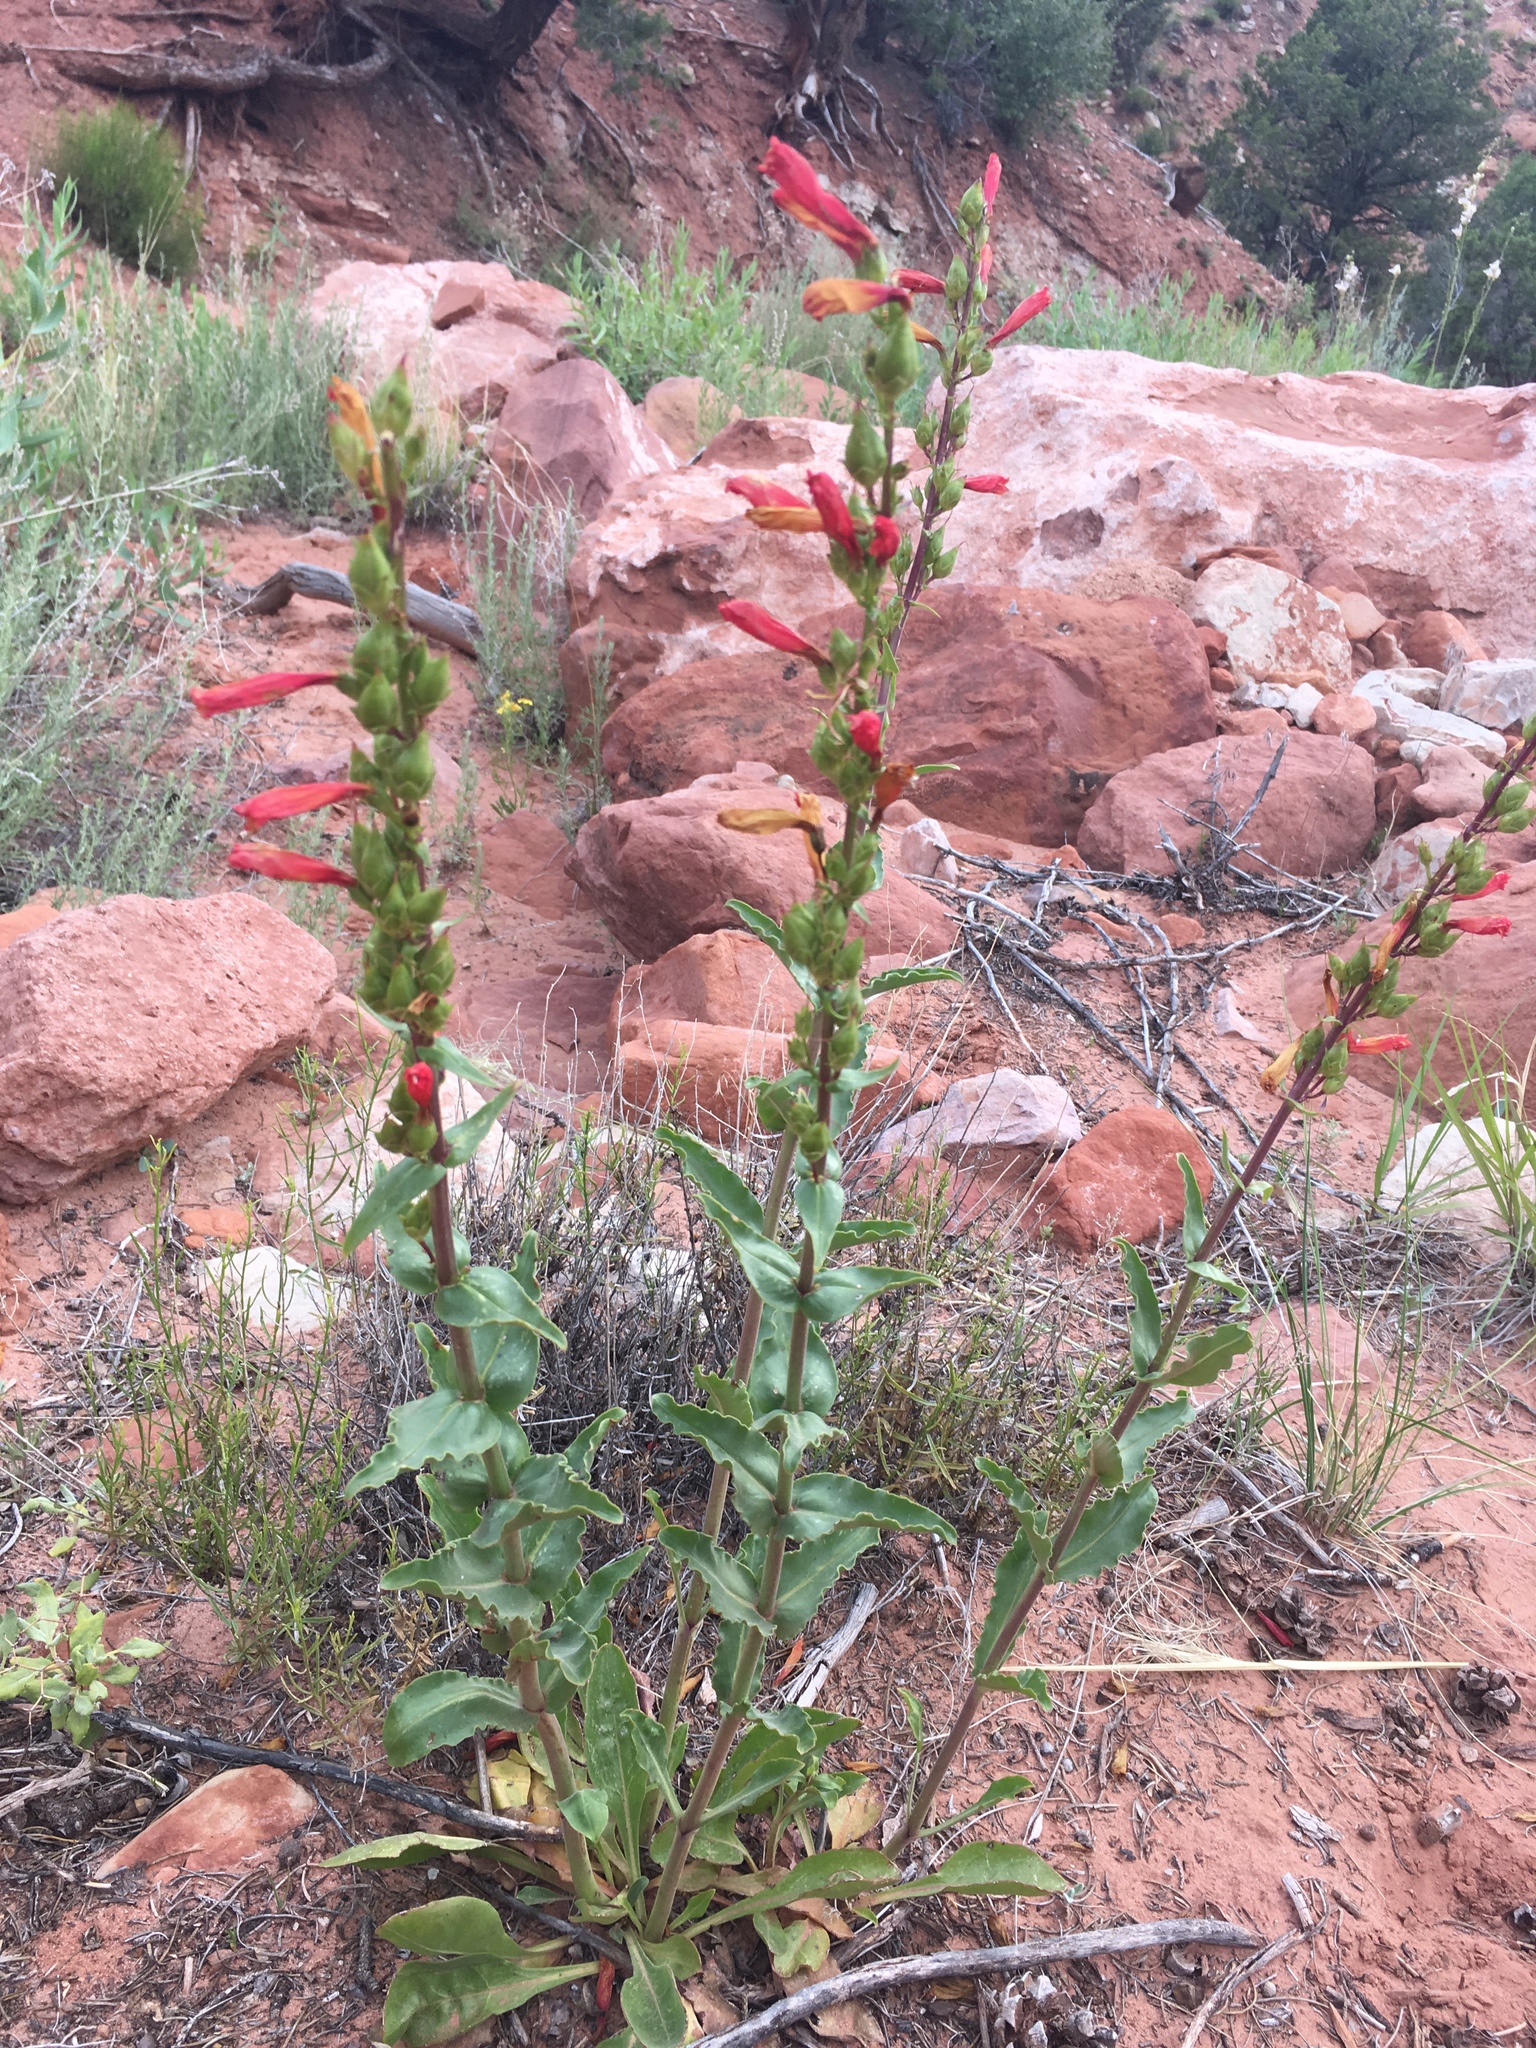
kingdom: Plantae
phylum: Tracheophyta
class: Magnoliopsida
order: Lamiales
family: Plantaginaceae
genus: Penstemon
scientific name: Penstemon eatonii
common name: Eaton's penstemon
